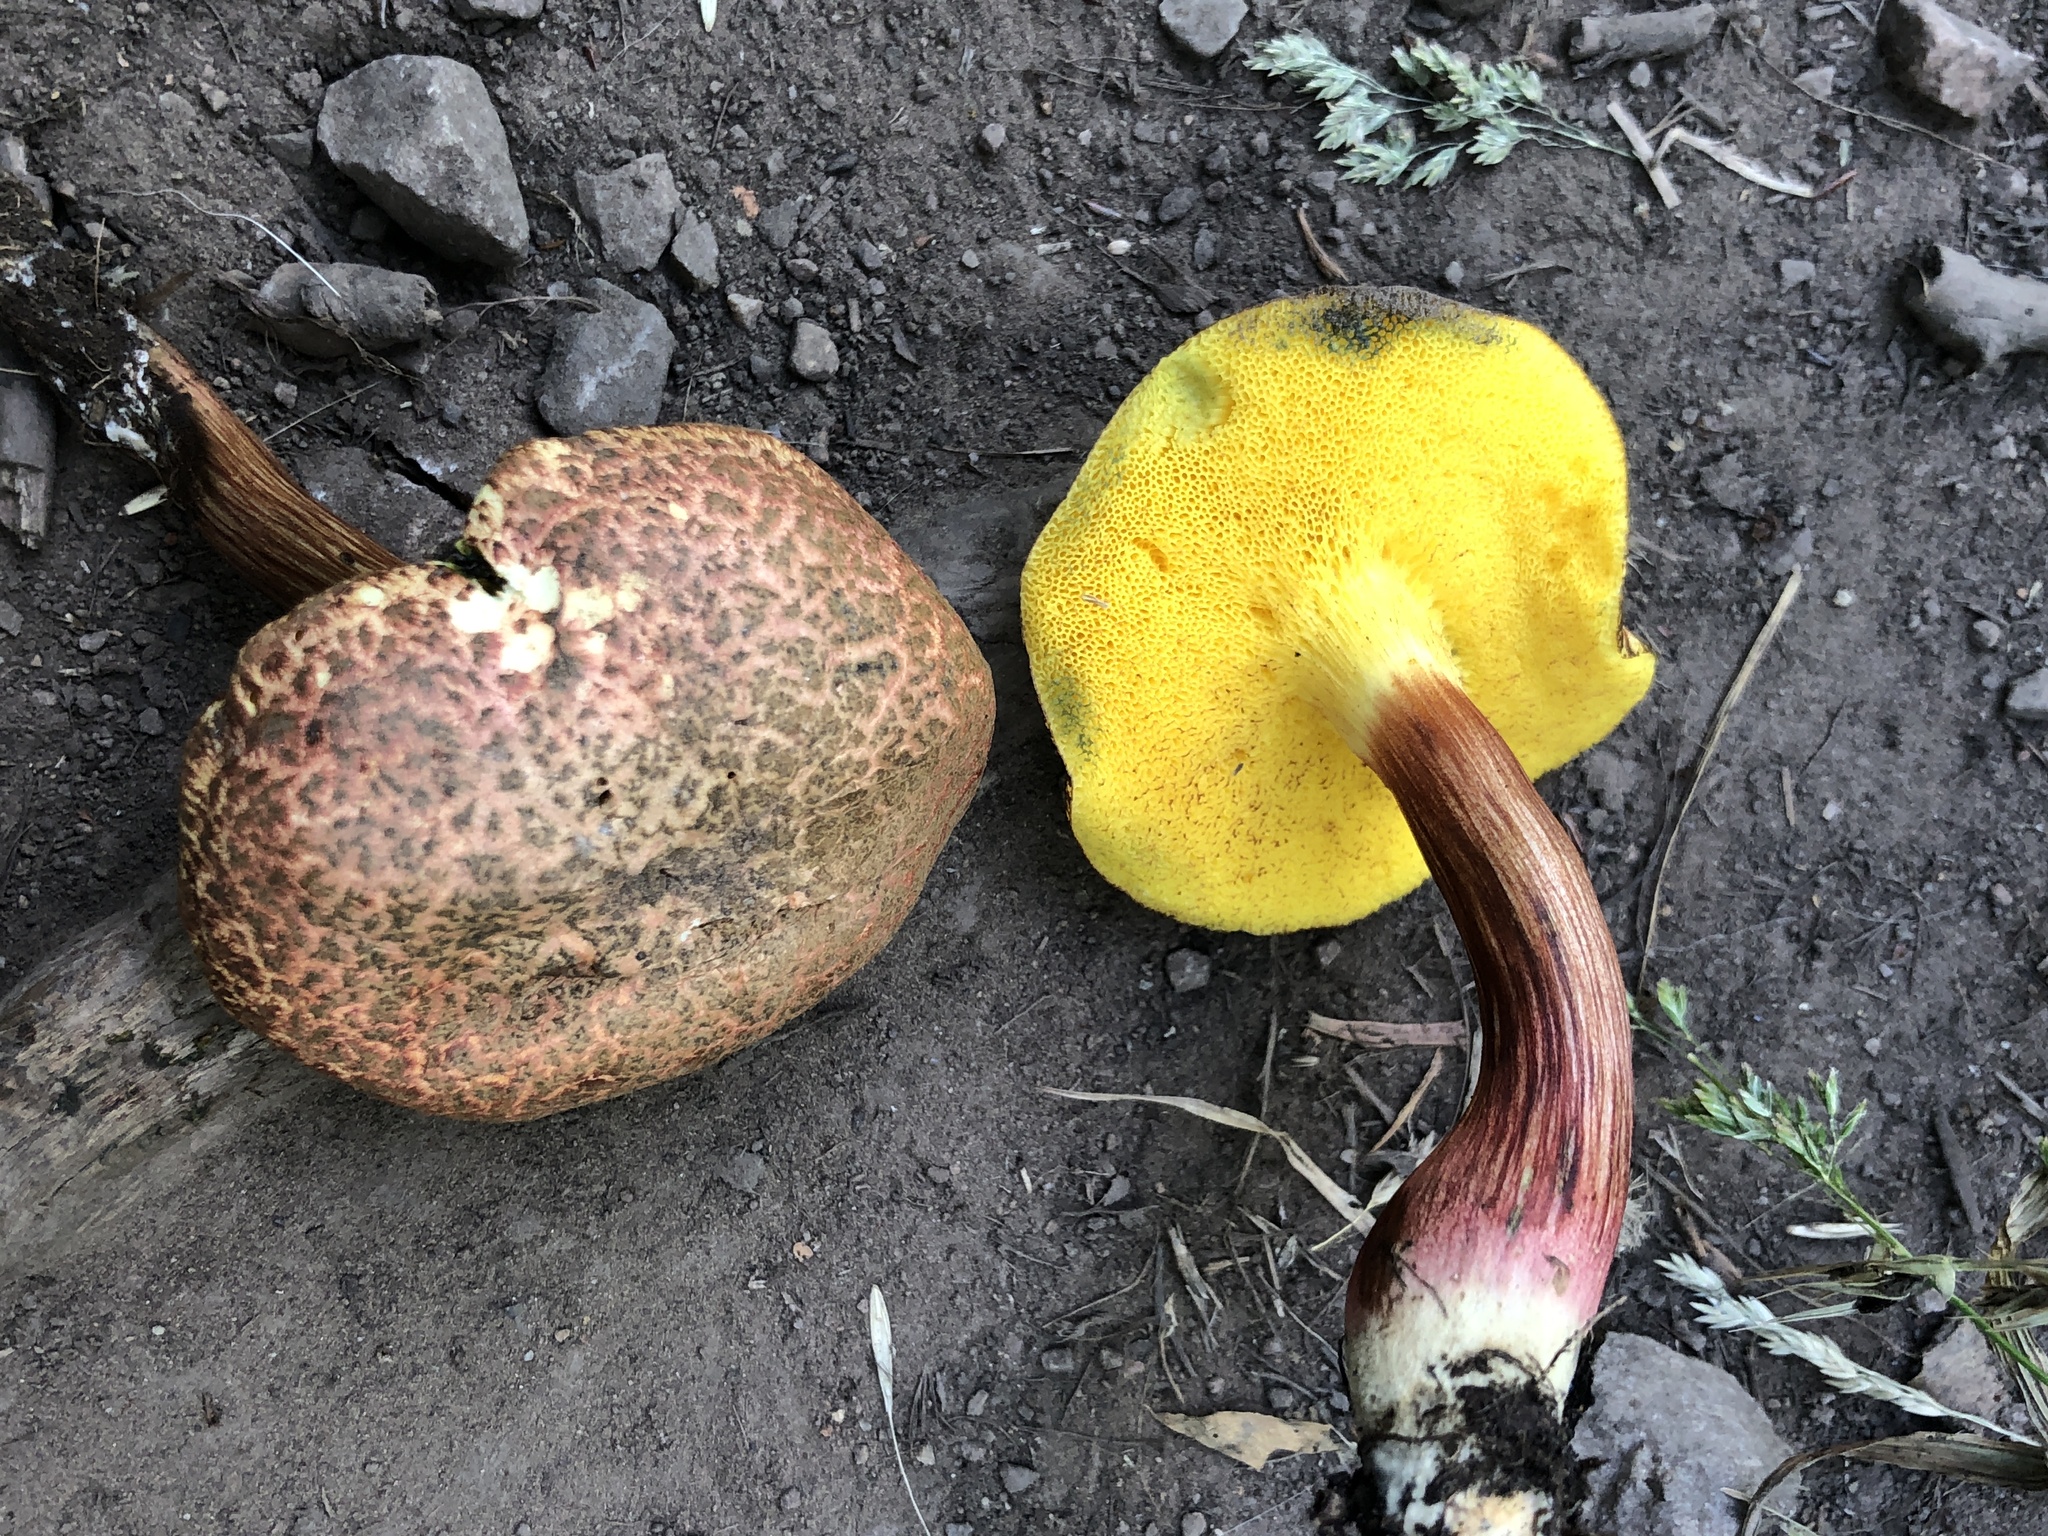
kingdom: Fungi
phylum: Basidiomycota
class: Agaricomycetes
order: Boletales
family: Boletaceae
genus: Xerocomellus
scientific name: Xerocomellus chrysenteron
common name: Red-cracking bolete
